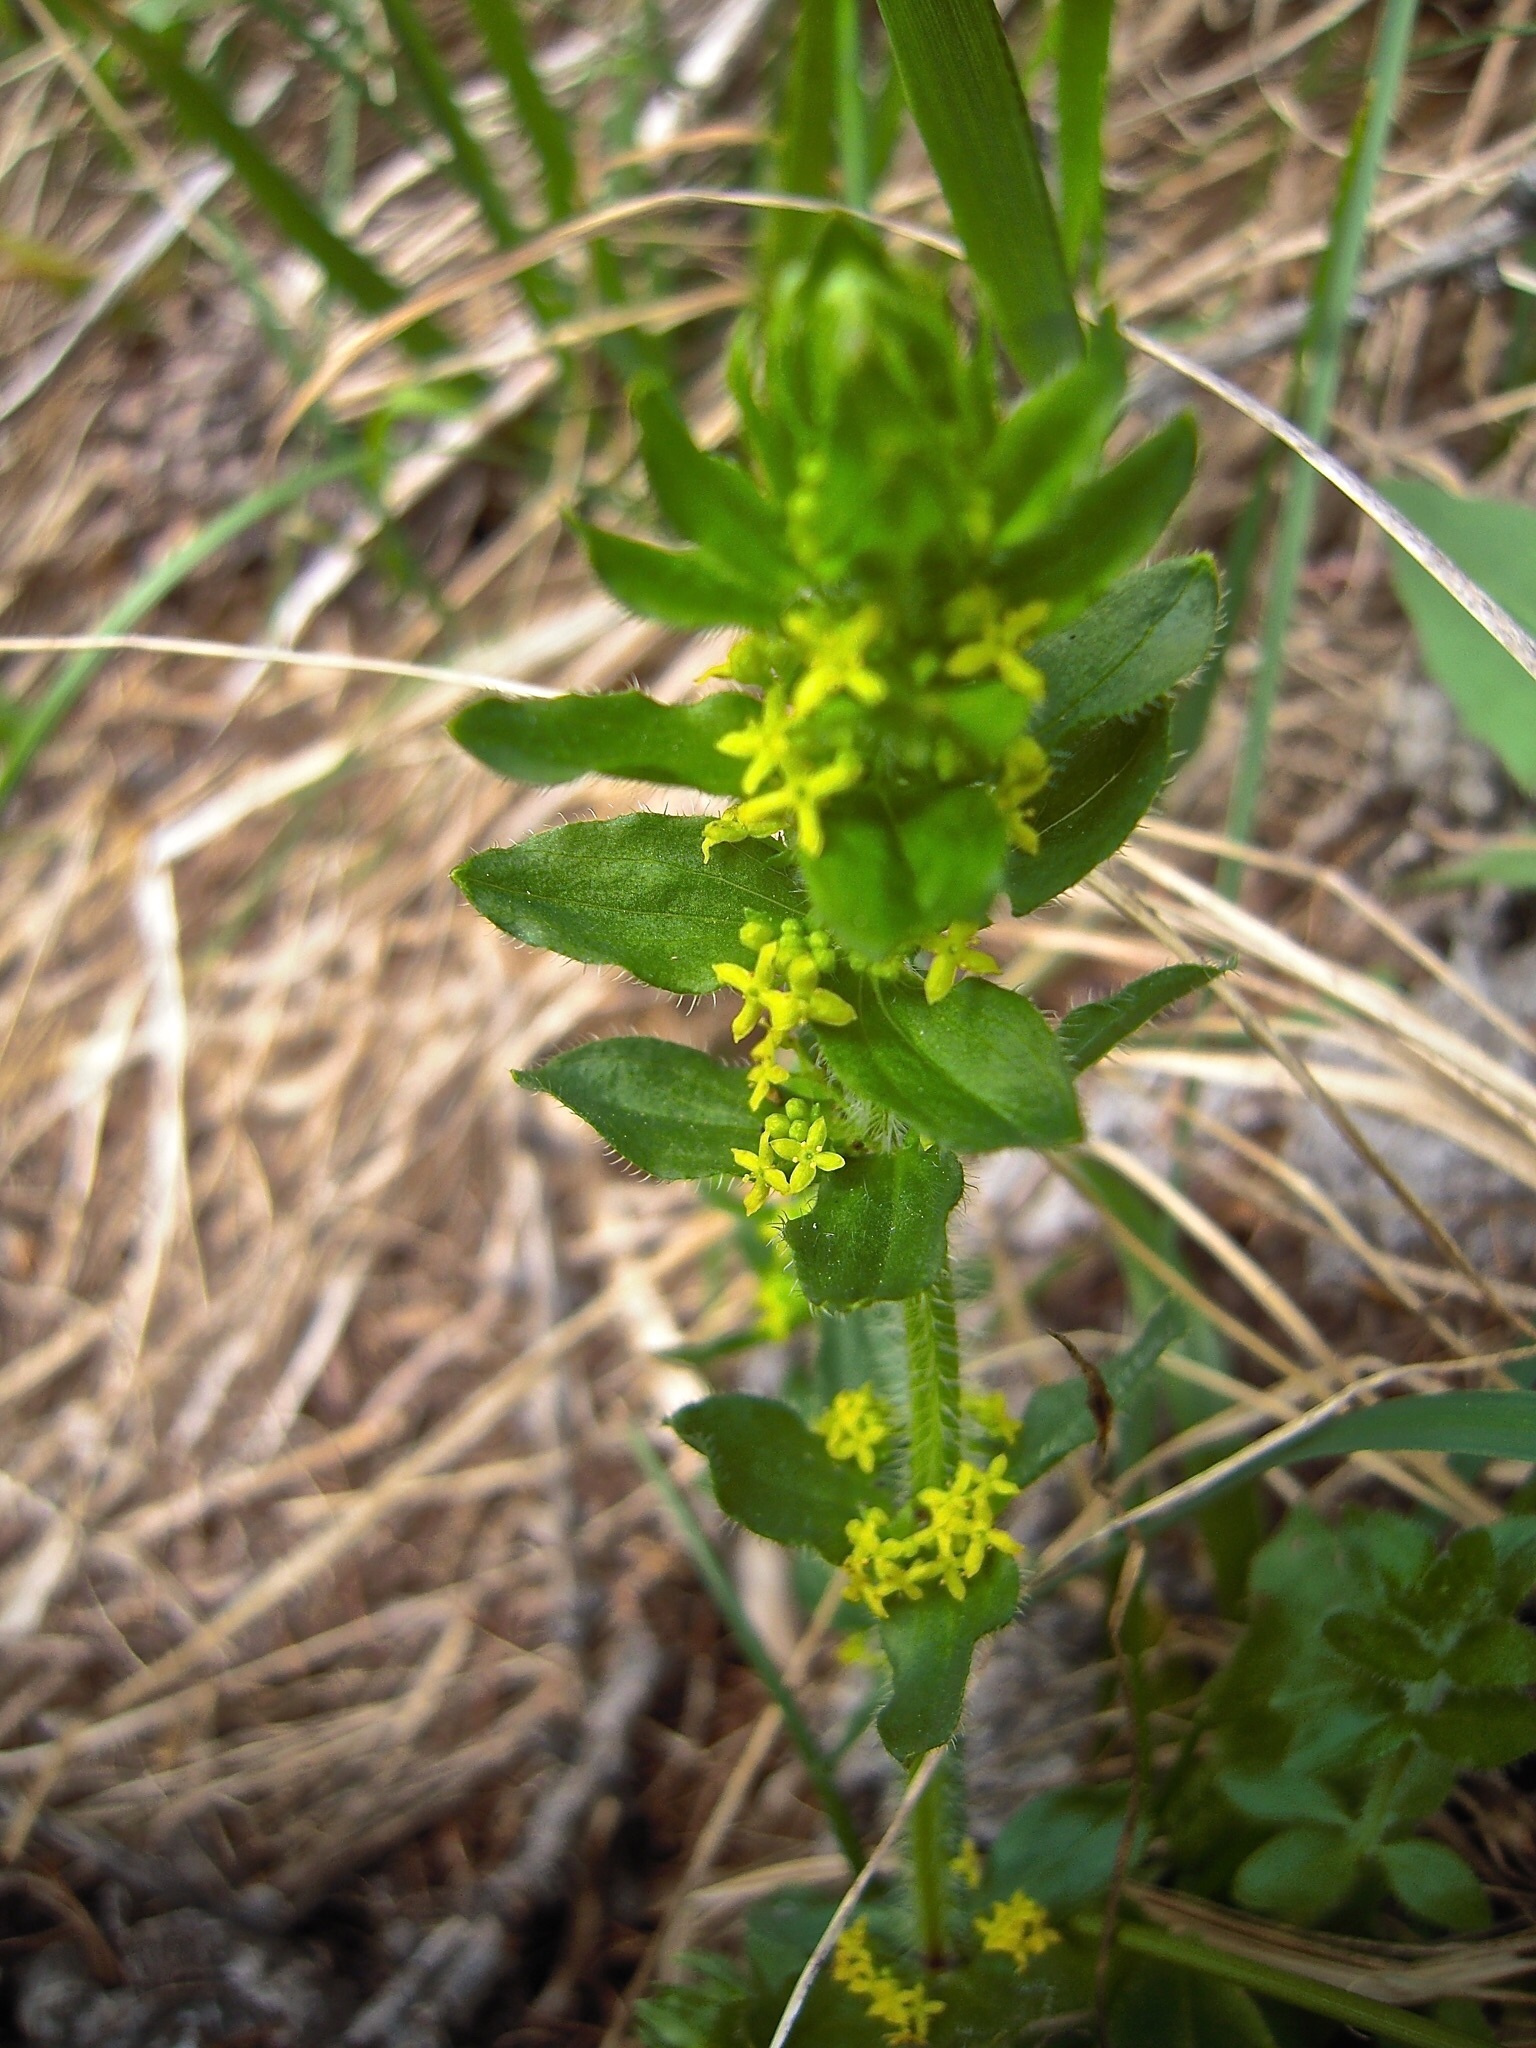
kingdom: Plantae
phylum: Tracheophyta
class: Magnoliopsida
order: Gentianales
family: Rubiaceae
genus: Cruciata
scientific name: Cruciata laevipes
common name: Crosswort
